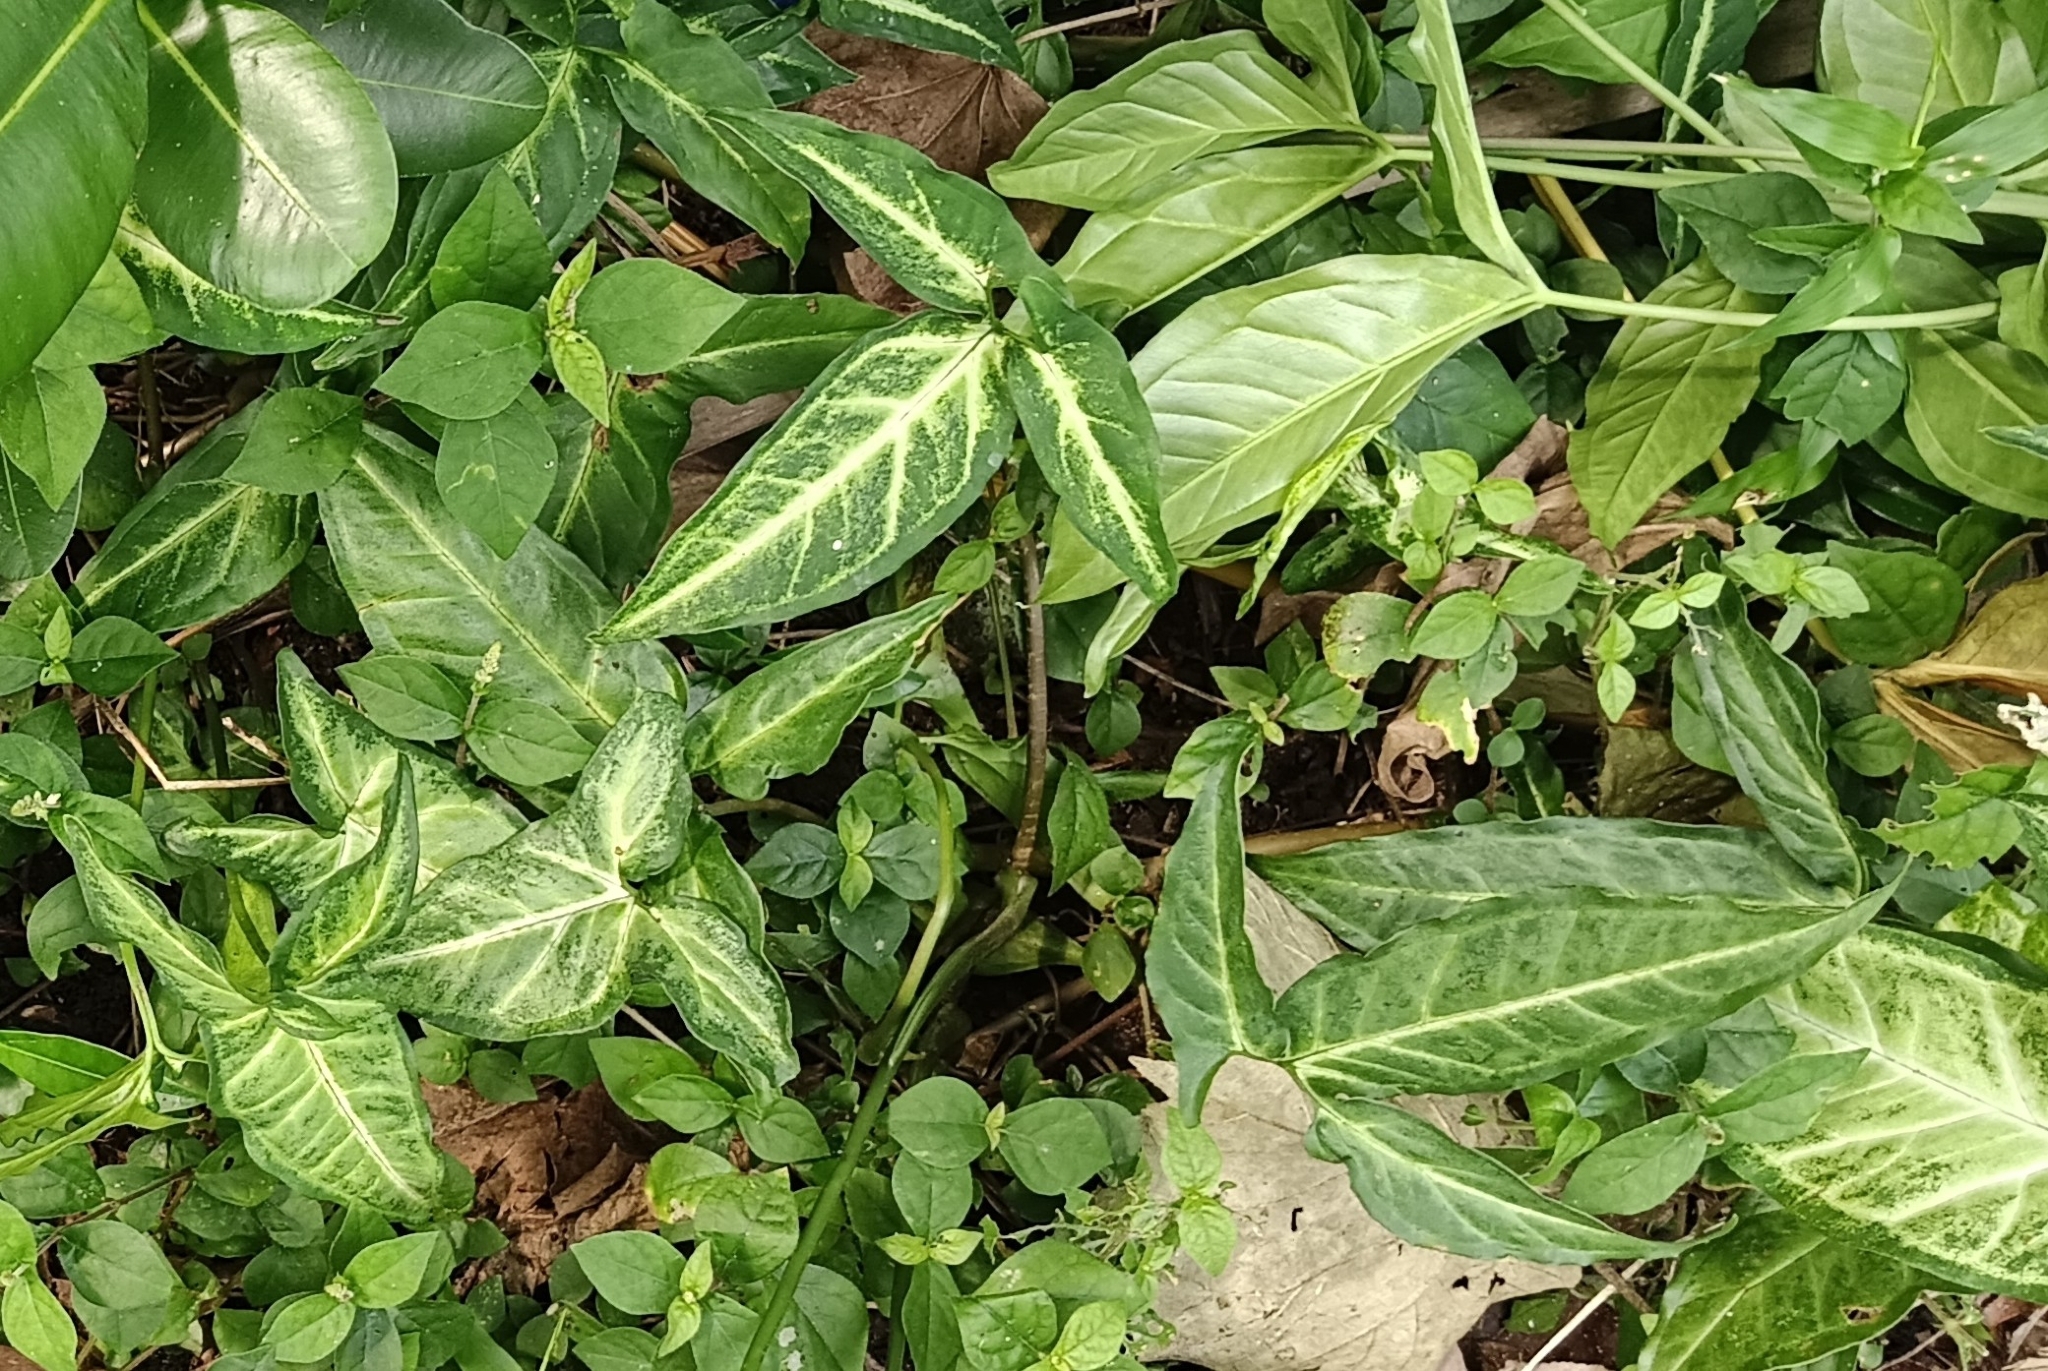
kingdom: Plantae
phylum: Tracheophyta
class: Liliopsida
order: Alismatales
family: Araceae
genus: Syngonium
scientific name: Syngonium angustatum
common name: Fivefingers
